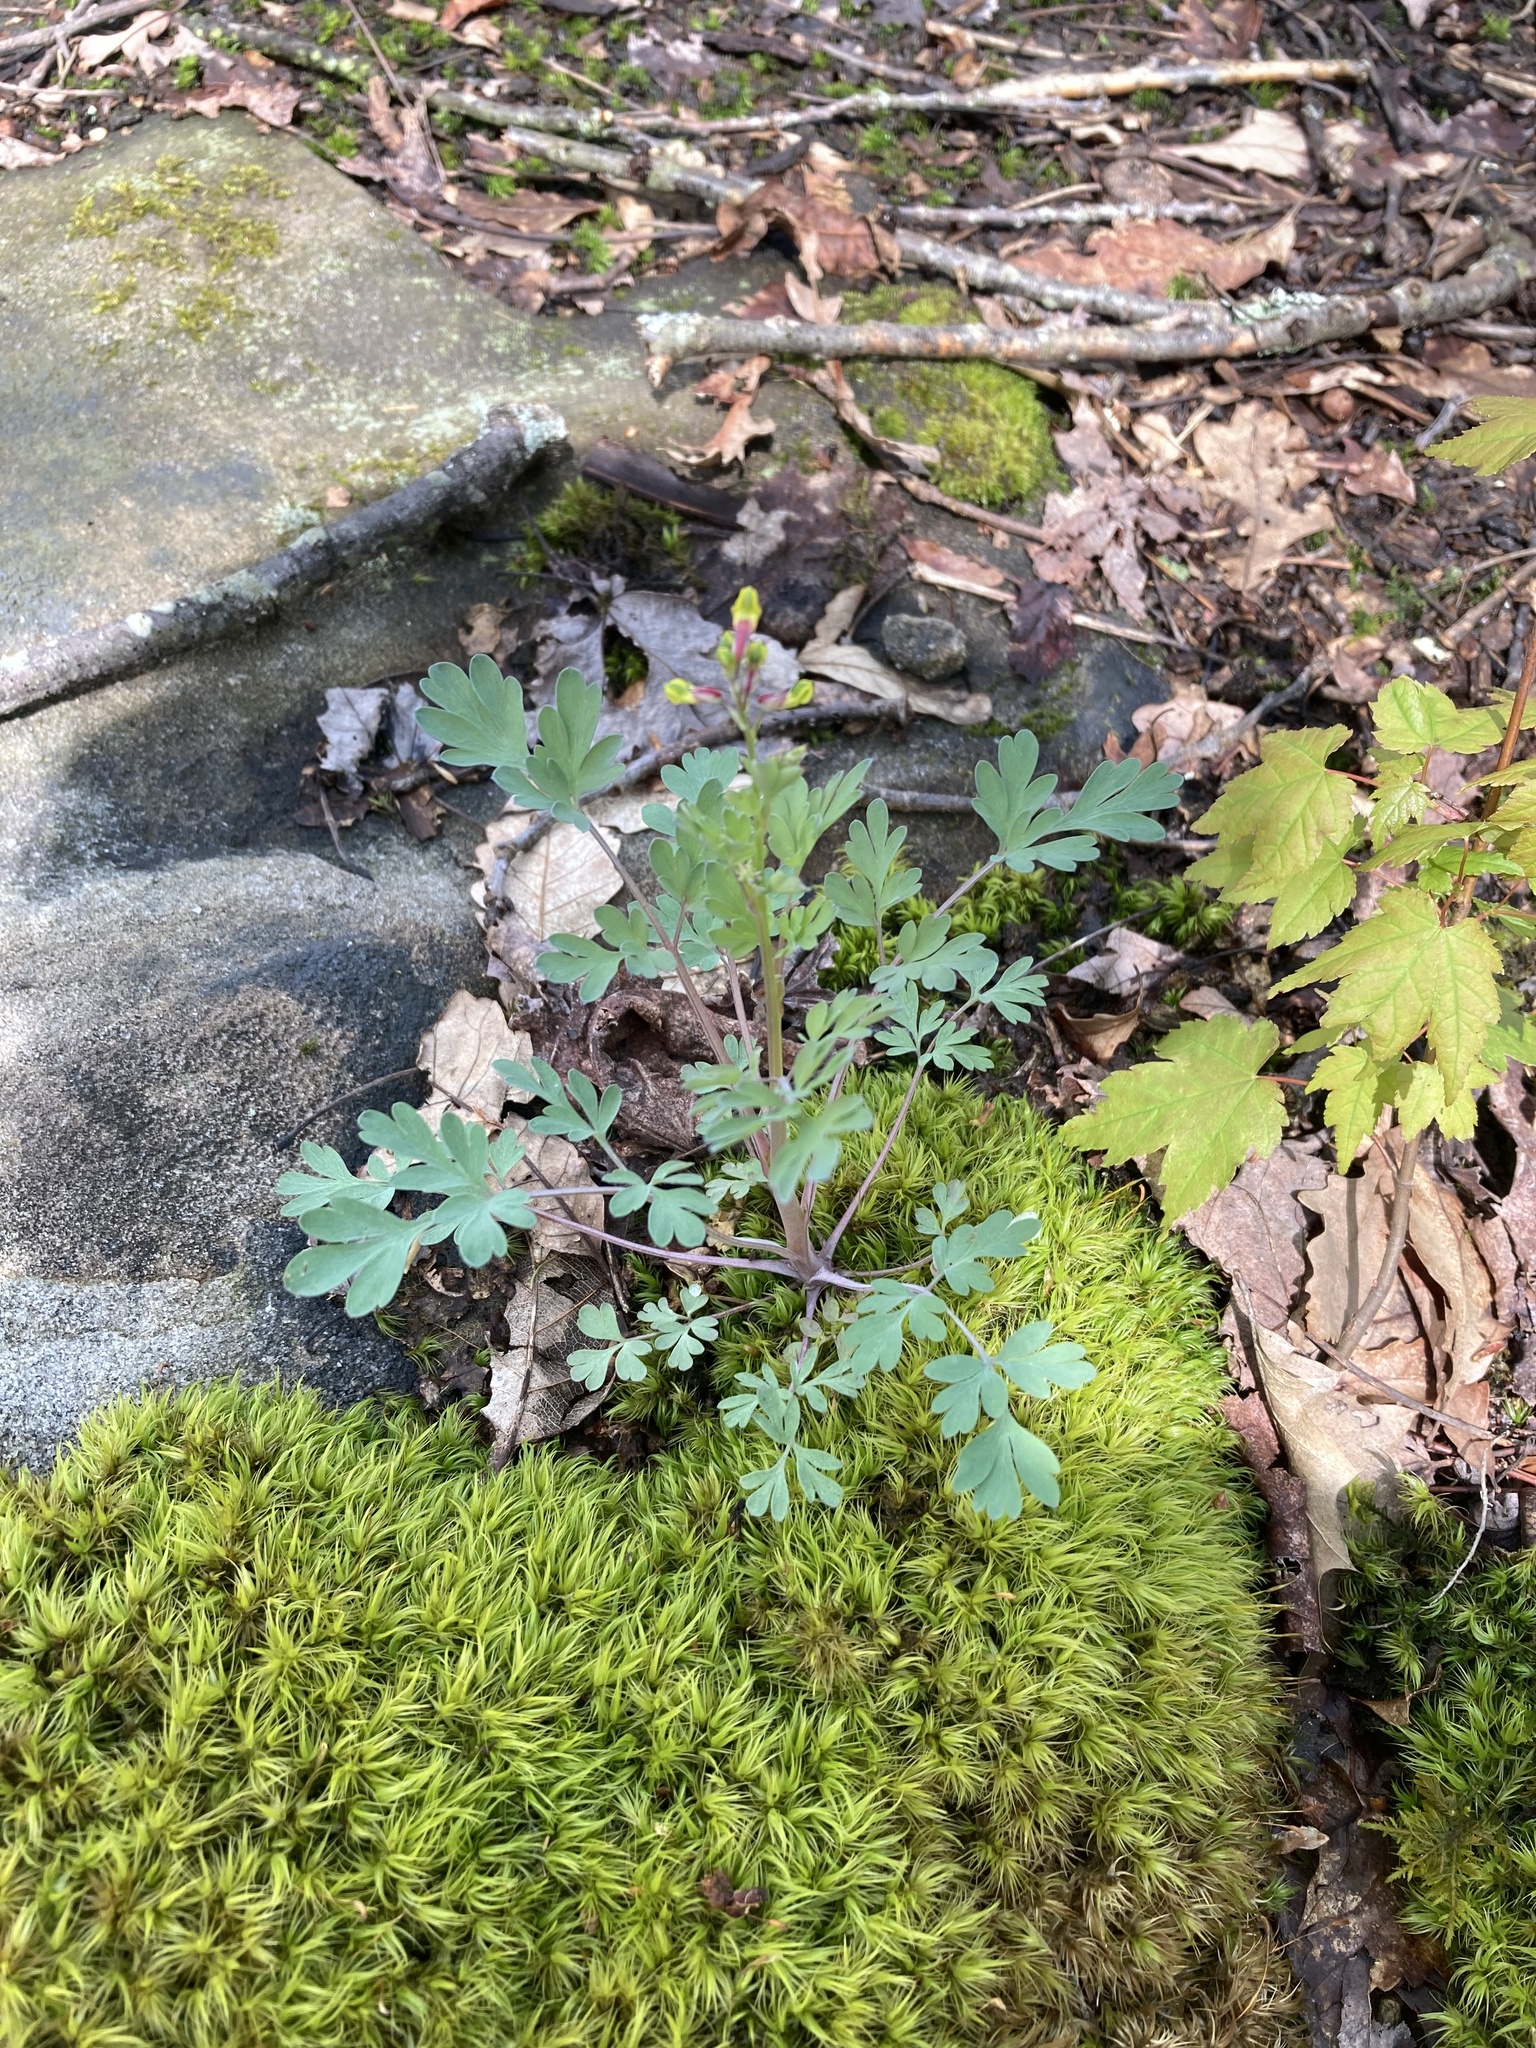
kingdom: Plantae
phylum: Tracheophyta
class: Magnoliopsida
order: Ranunculales
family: Papaveraceae
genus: Capnoides
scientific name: Capnoides sempervirens
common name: Rock harlequin
